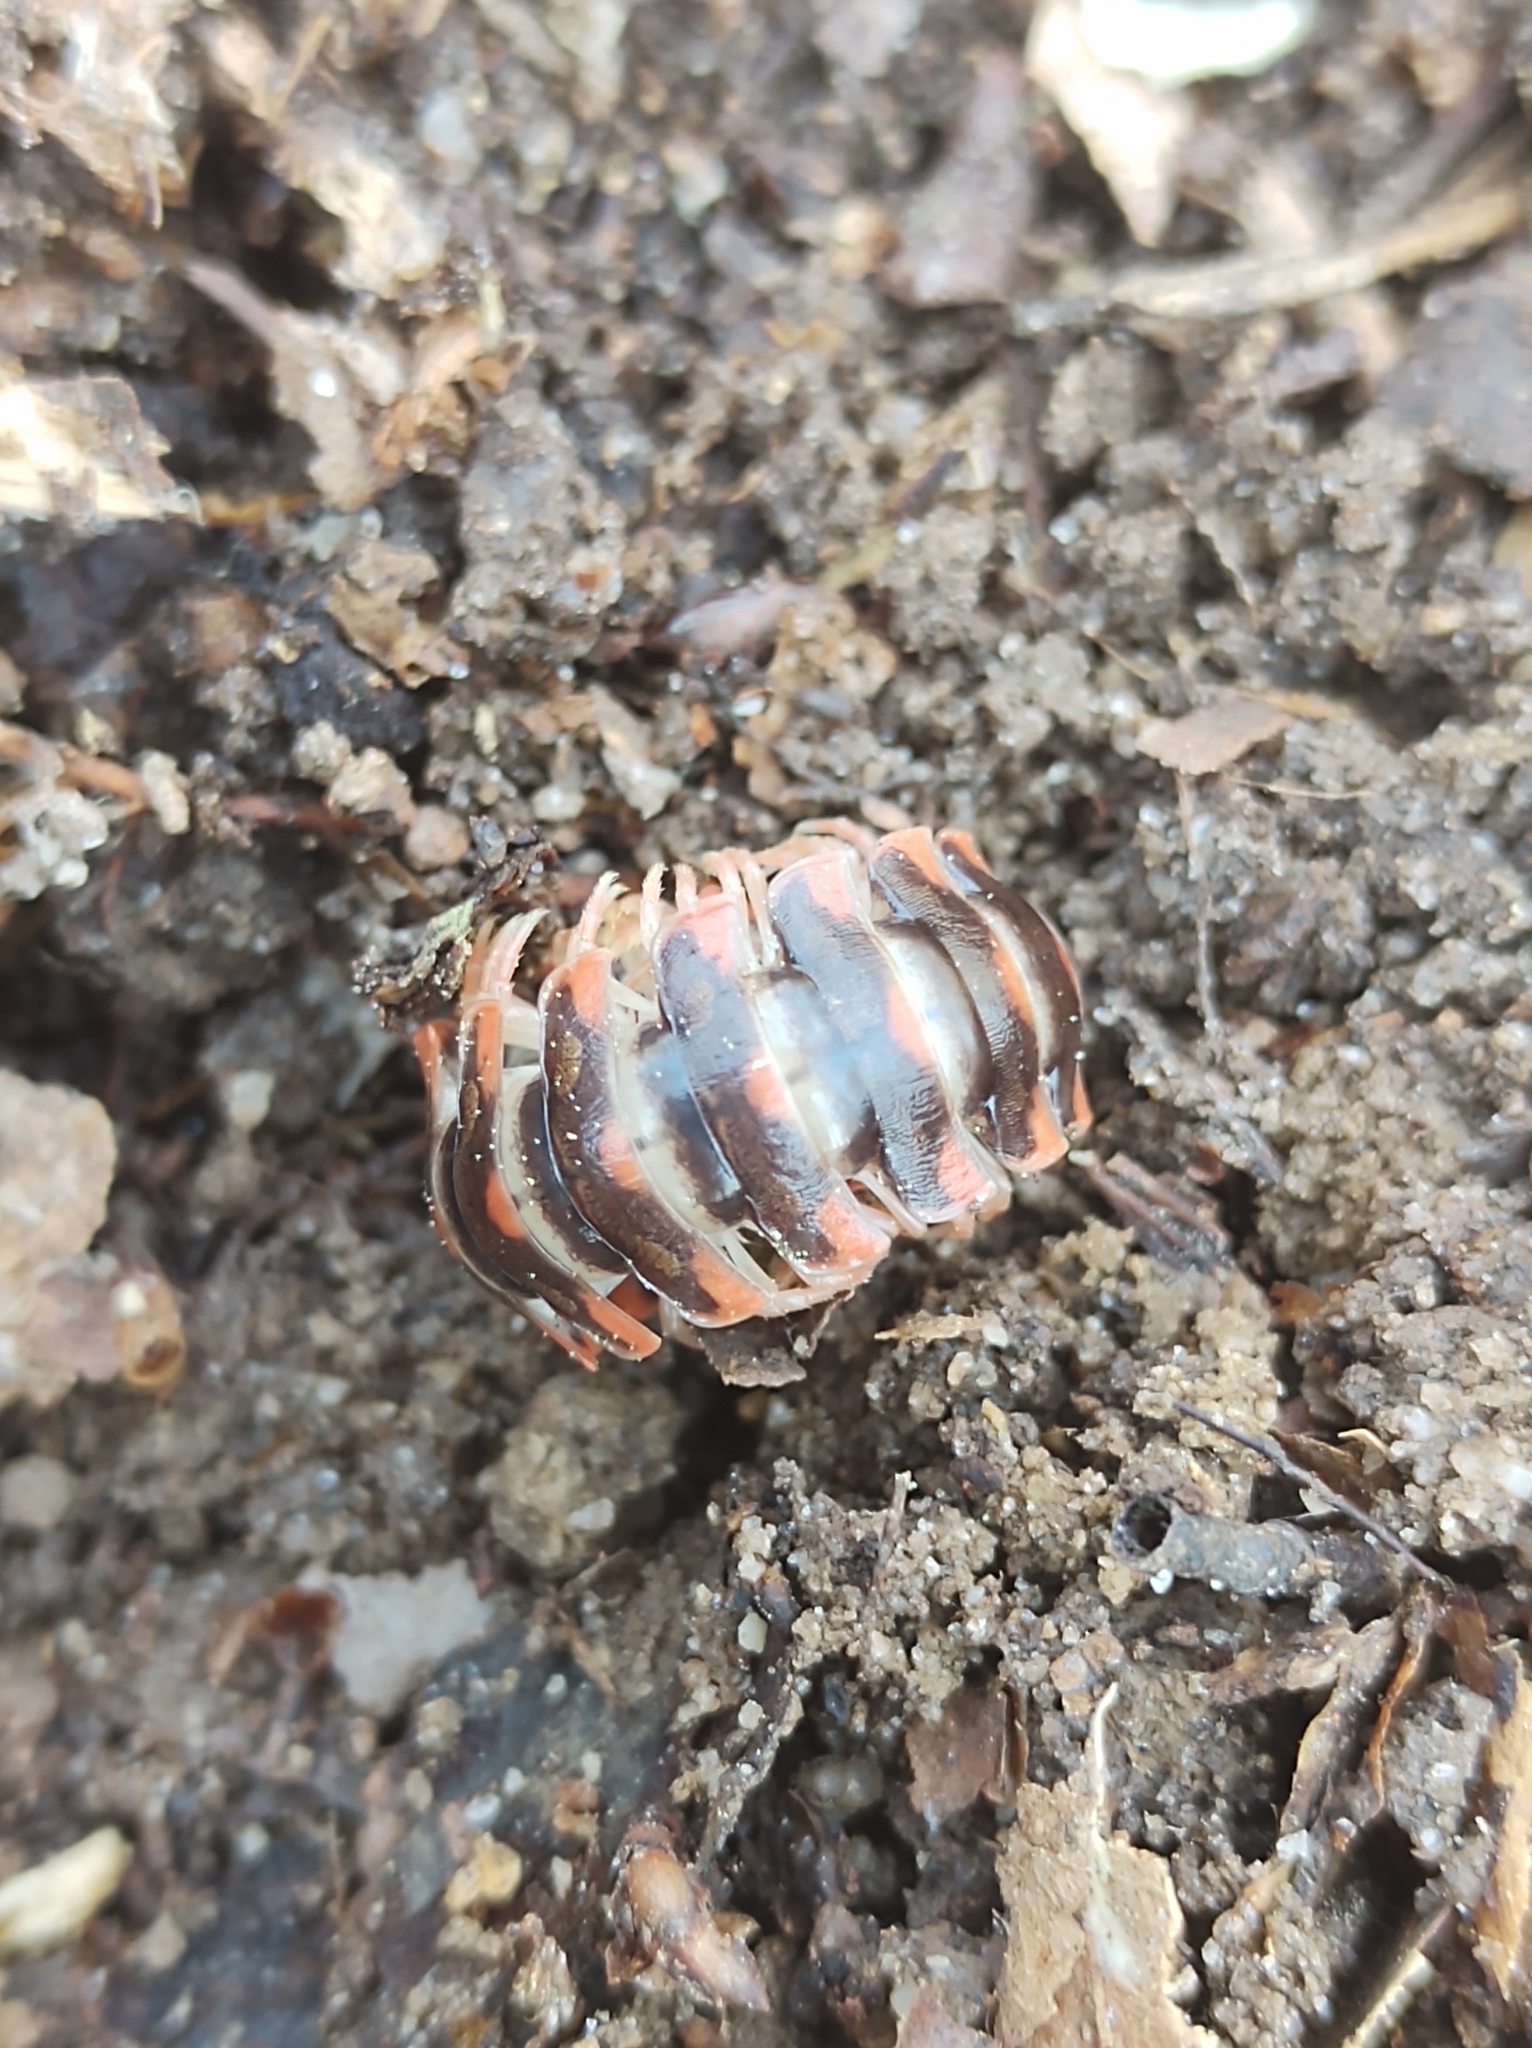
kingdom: Animalia
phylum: Arthropoda
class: Diplopoda
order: Polydesmida
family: Xystodesmidae
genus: Cherokia
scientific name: Cherokia georgiana
